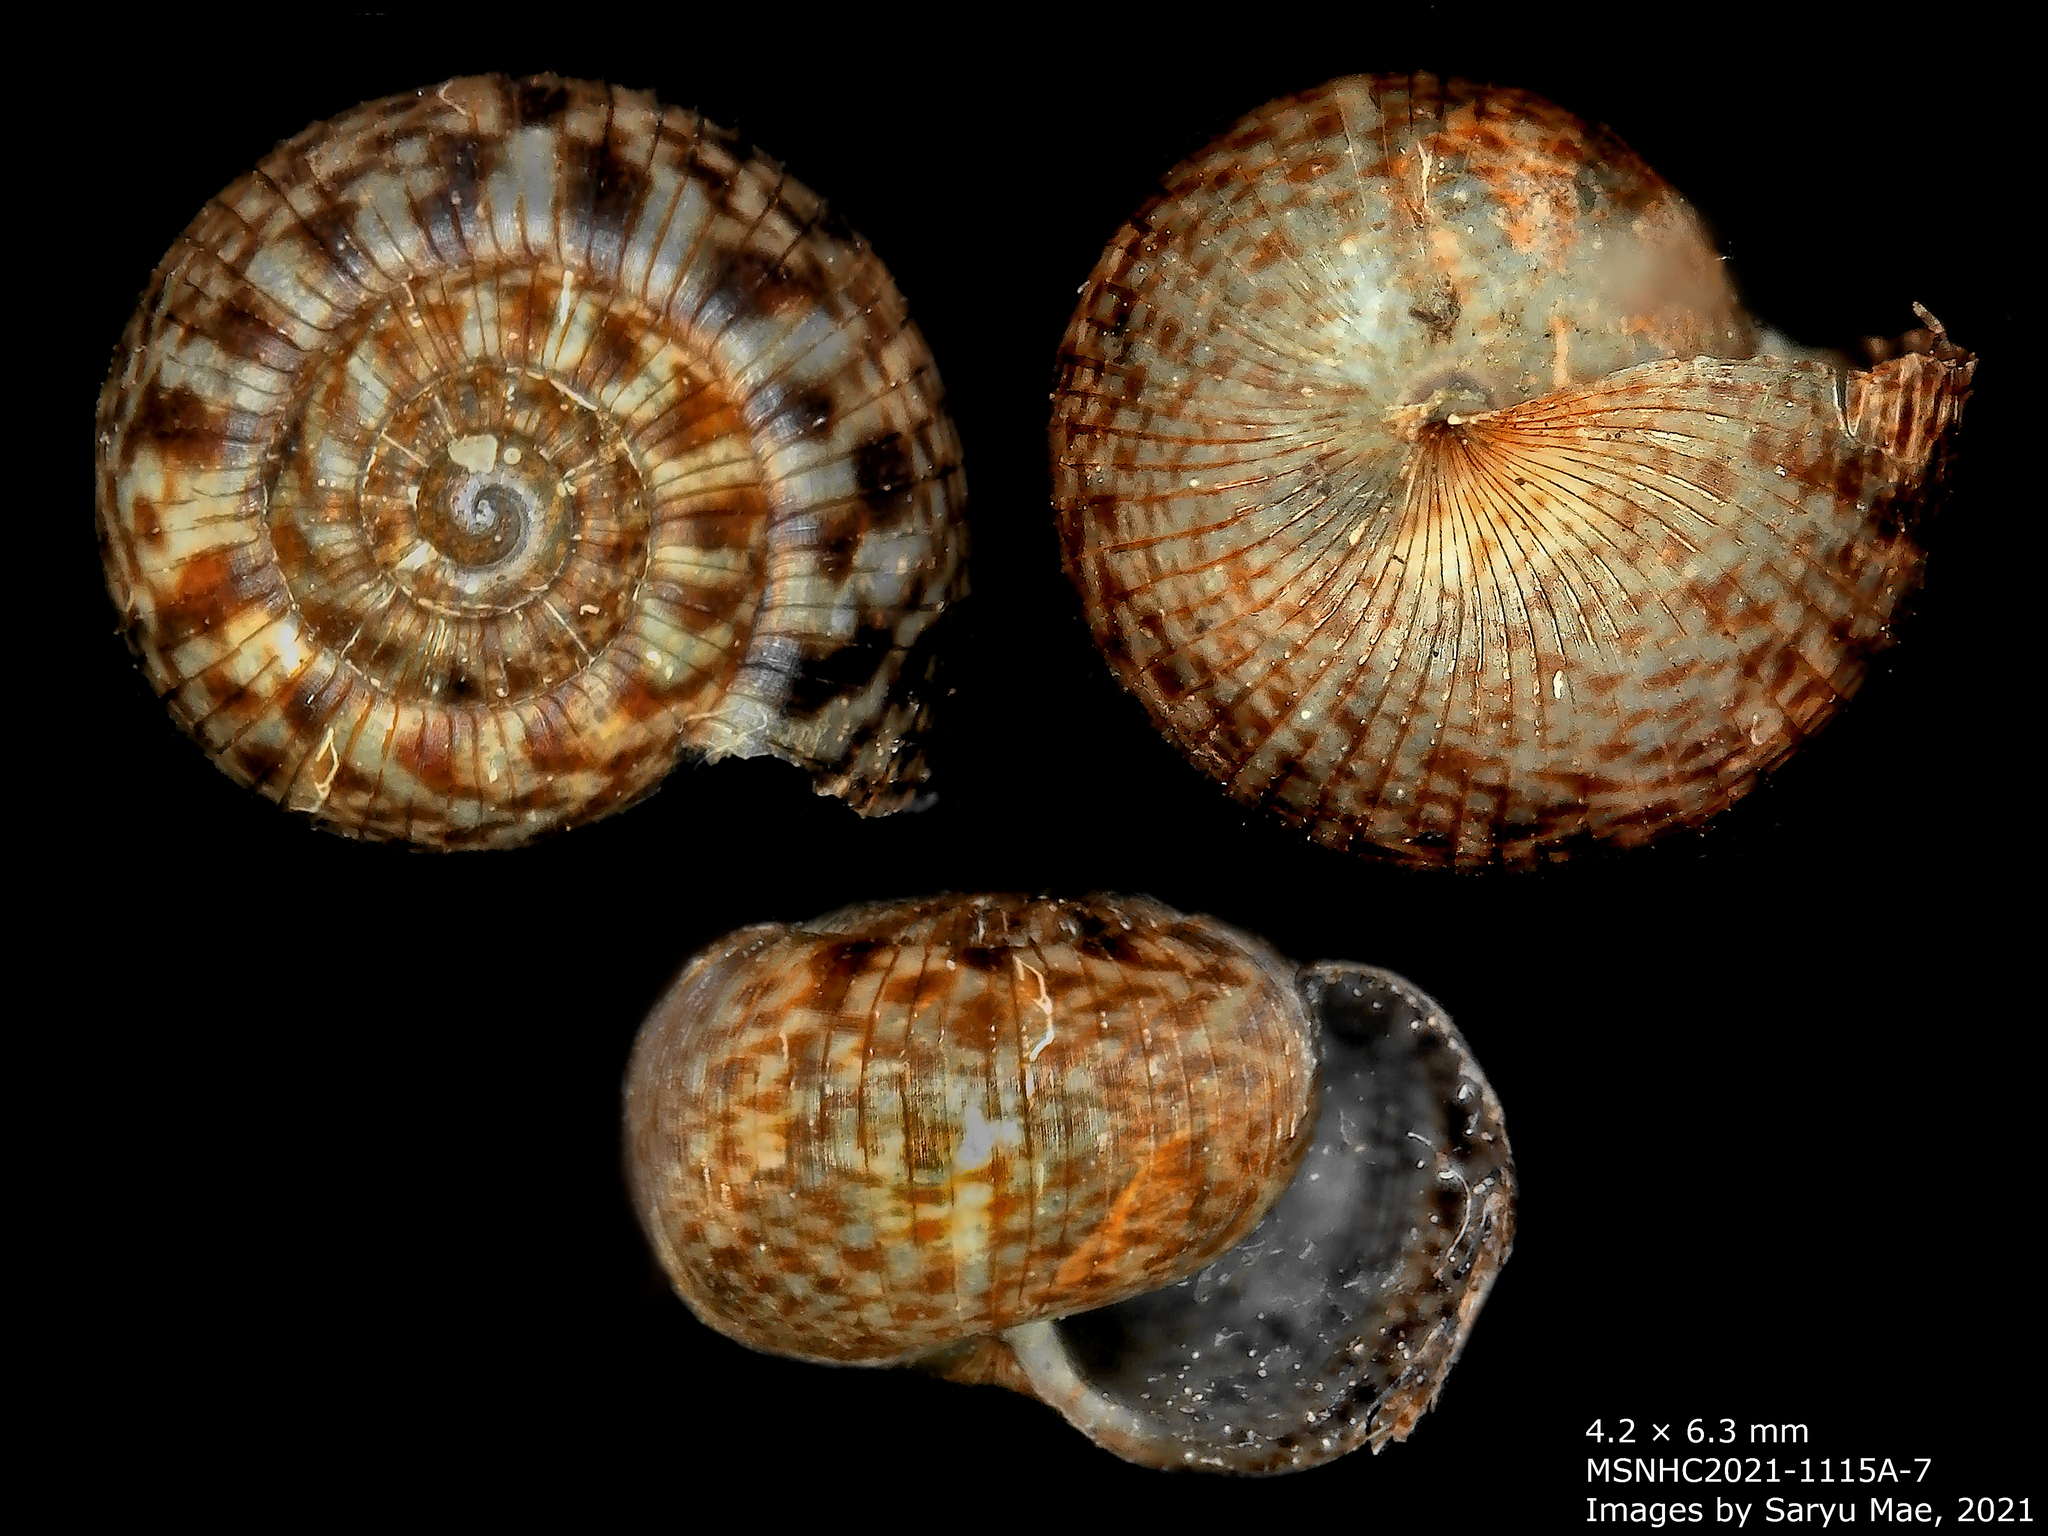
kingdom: Animalia
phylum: Mollusca
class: Gastropoda
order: Stylommatophora
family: Charopidae
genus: Allodiscus
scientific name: Allodiscus dimorphus
